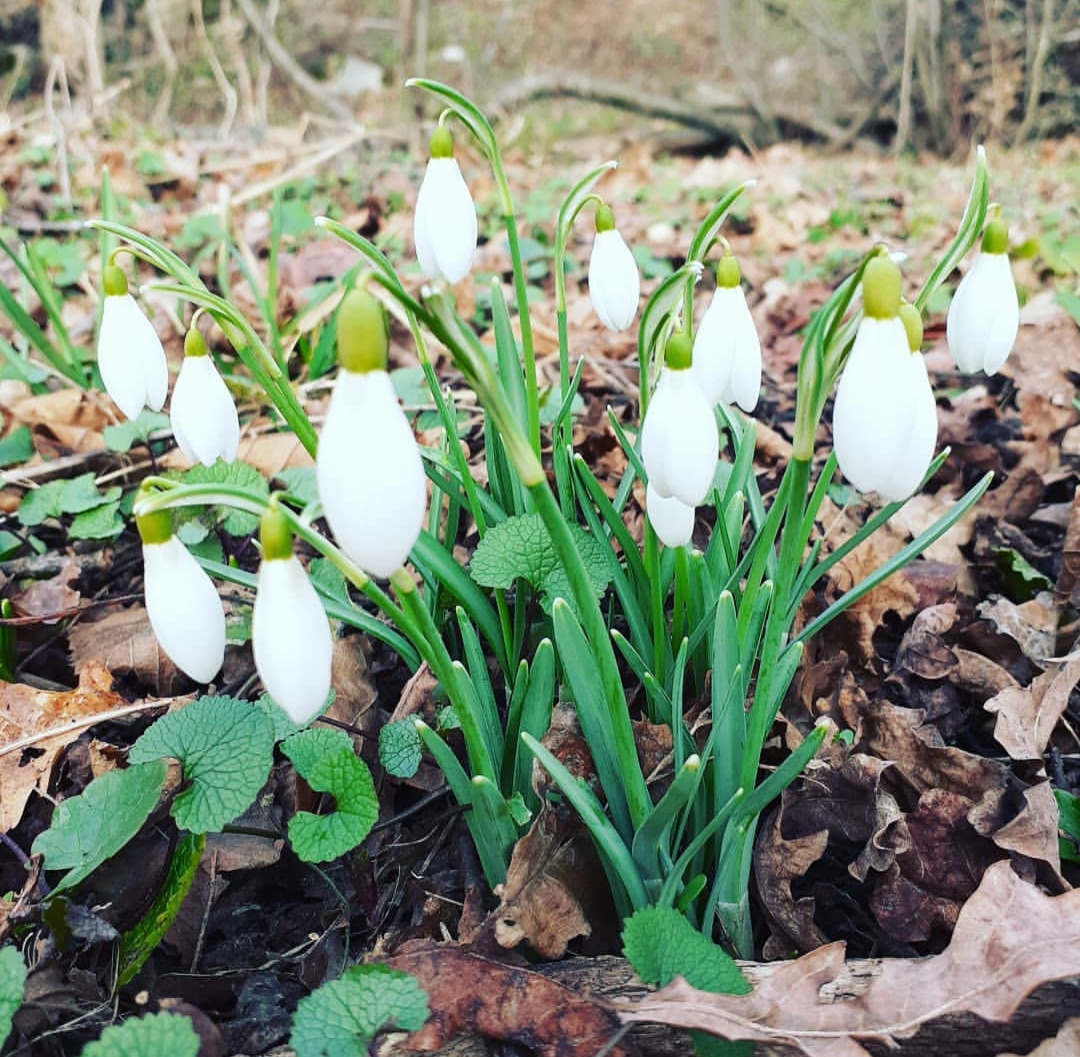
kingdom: Plantae
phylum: Tracheophyta
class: Liliopsida
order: Asparagales
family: Amaryllidaceae
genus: Galanthus
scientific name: Galanthus nivalis
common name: Snowdrop
